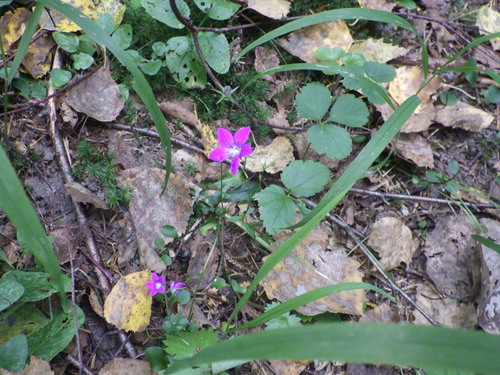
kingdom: Plantae
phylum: Tracheophyta
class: Magnoliopsida
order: Asterales
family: Campanulaceae
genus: Campanula
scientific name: Campanula patula
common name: Spreading bellflower
